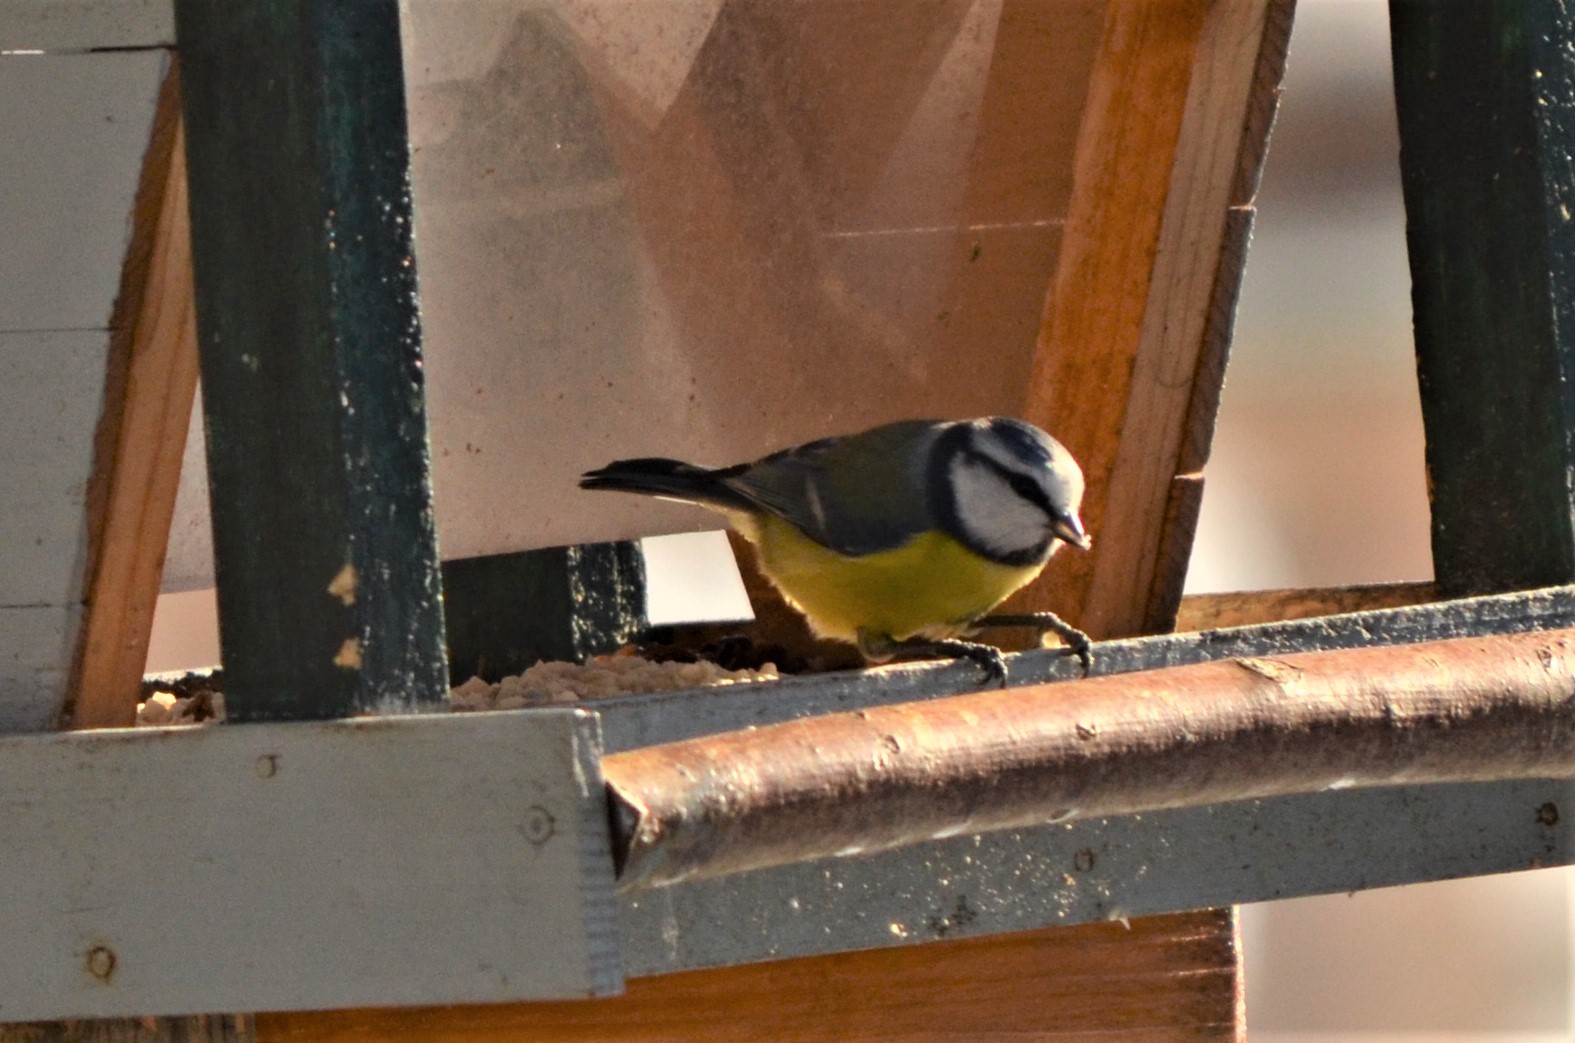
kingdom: Animalia
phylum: Chordata
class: Aves
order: Passeriformes
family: Paridae
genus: Cyanistes
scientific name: Cyanistes caeruleus
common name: Eurasian blue tit
